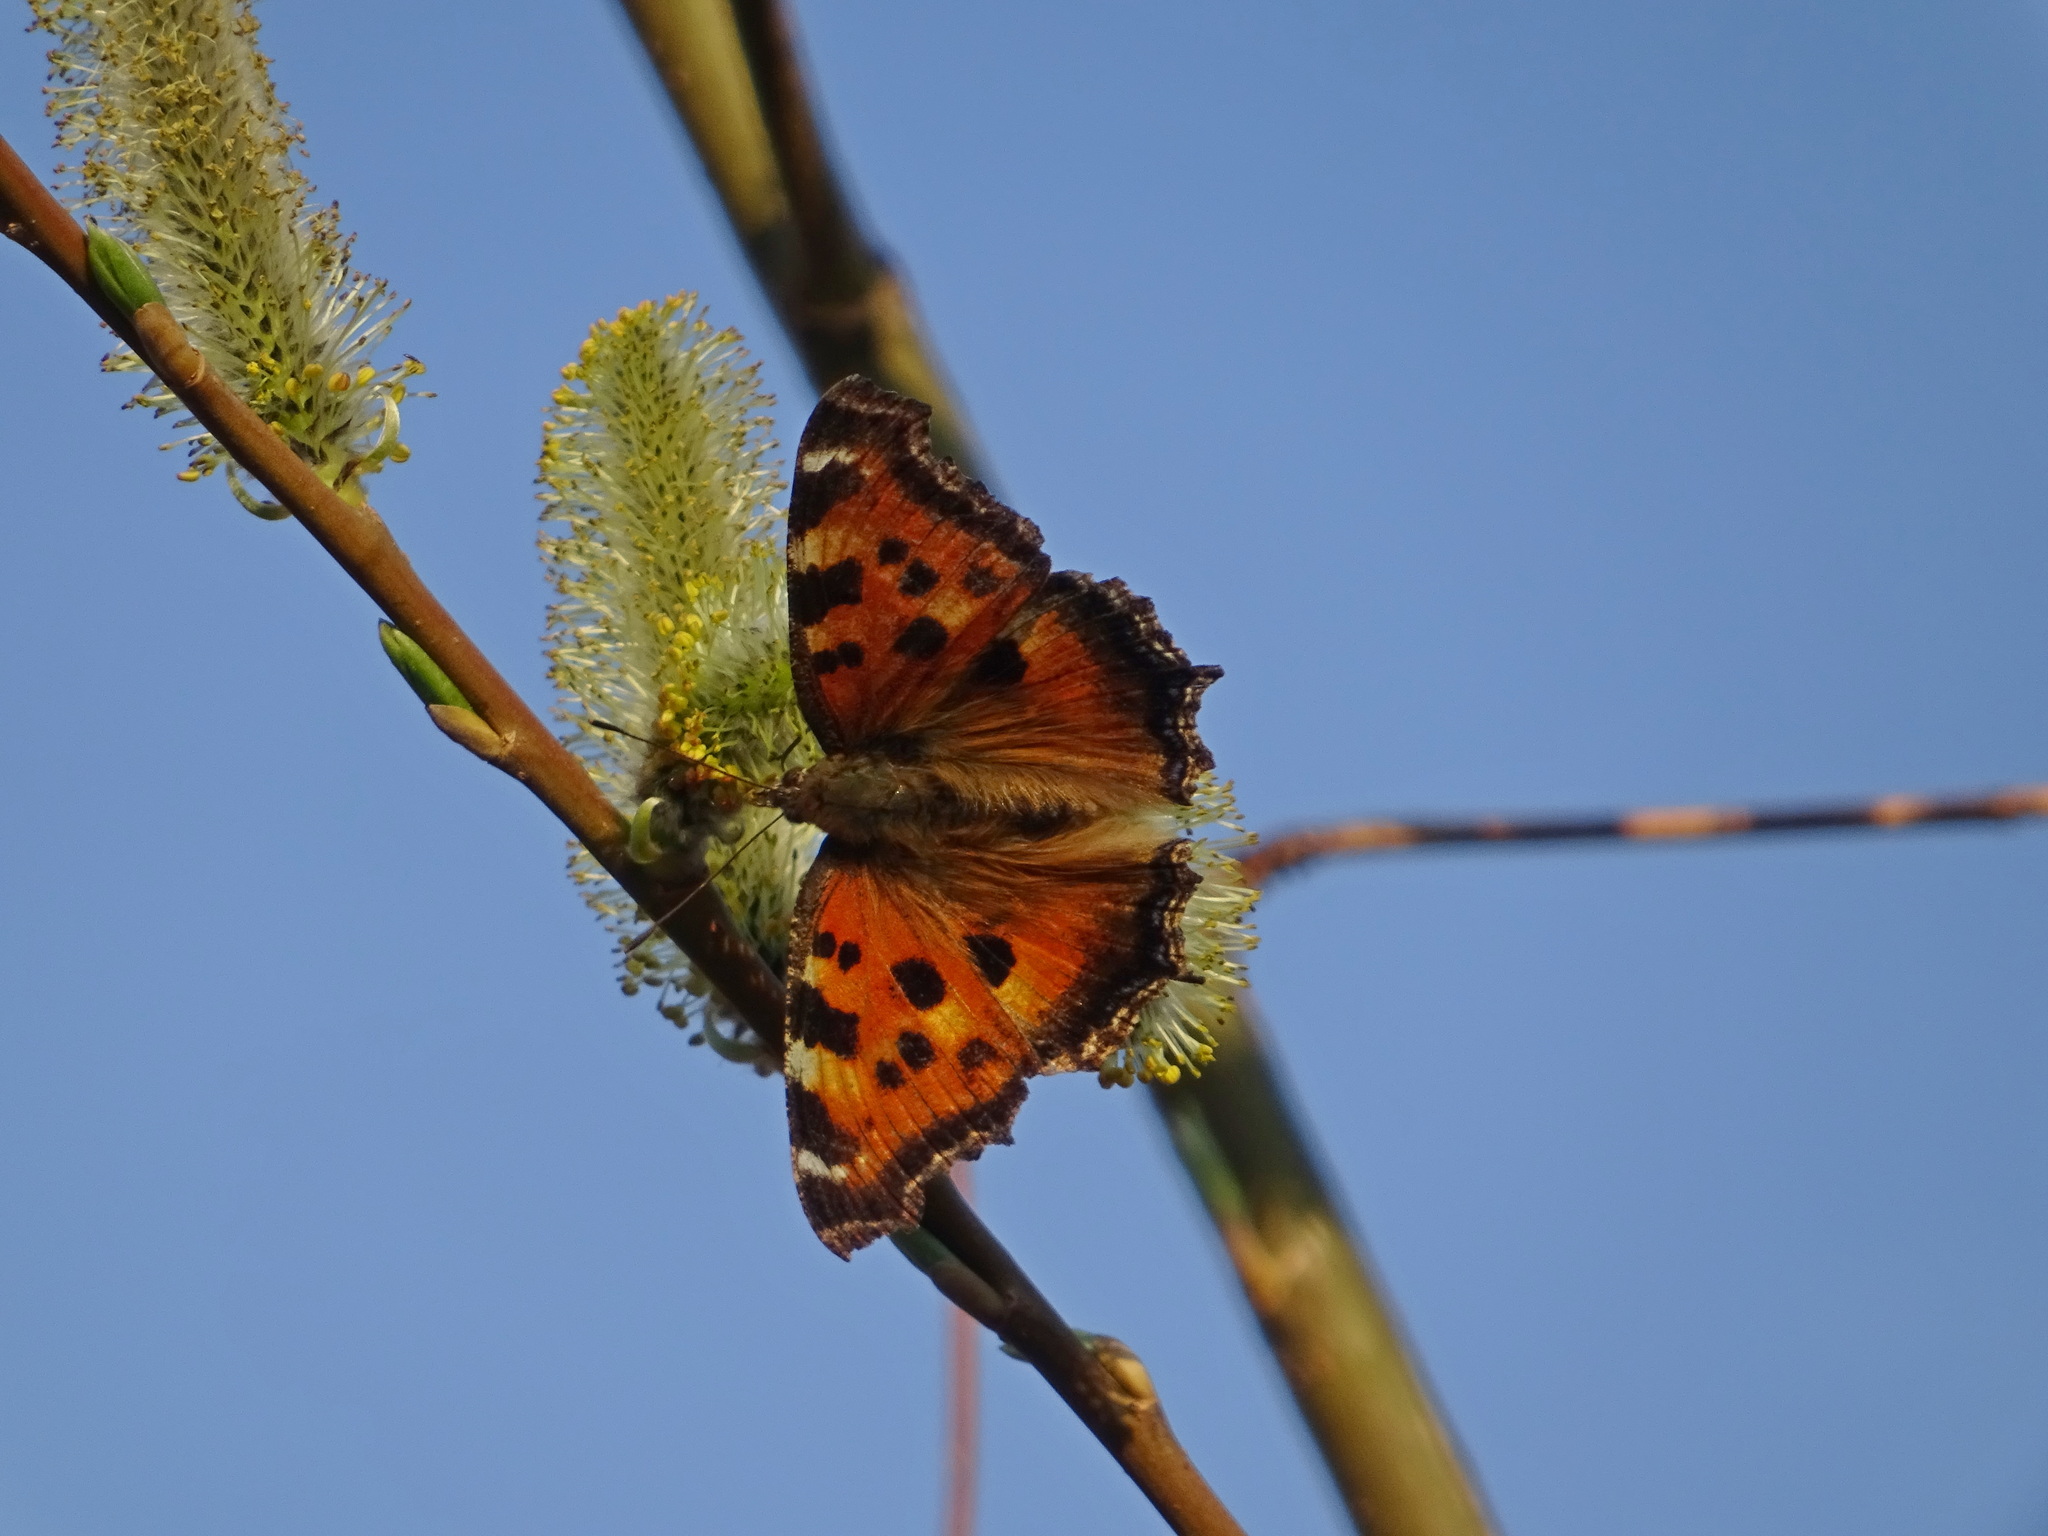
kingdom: Animalia
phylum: Arthropoda
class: Insecta
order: Lepidoptera
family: Nymphalidae
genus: Nymphalis
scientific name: Nymphalis xanthomelas
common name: Scarce tortoiseshell
